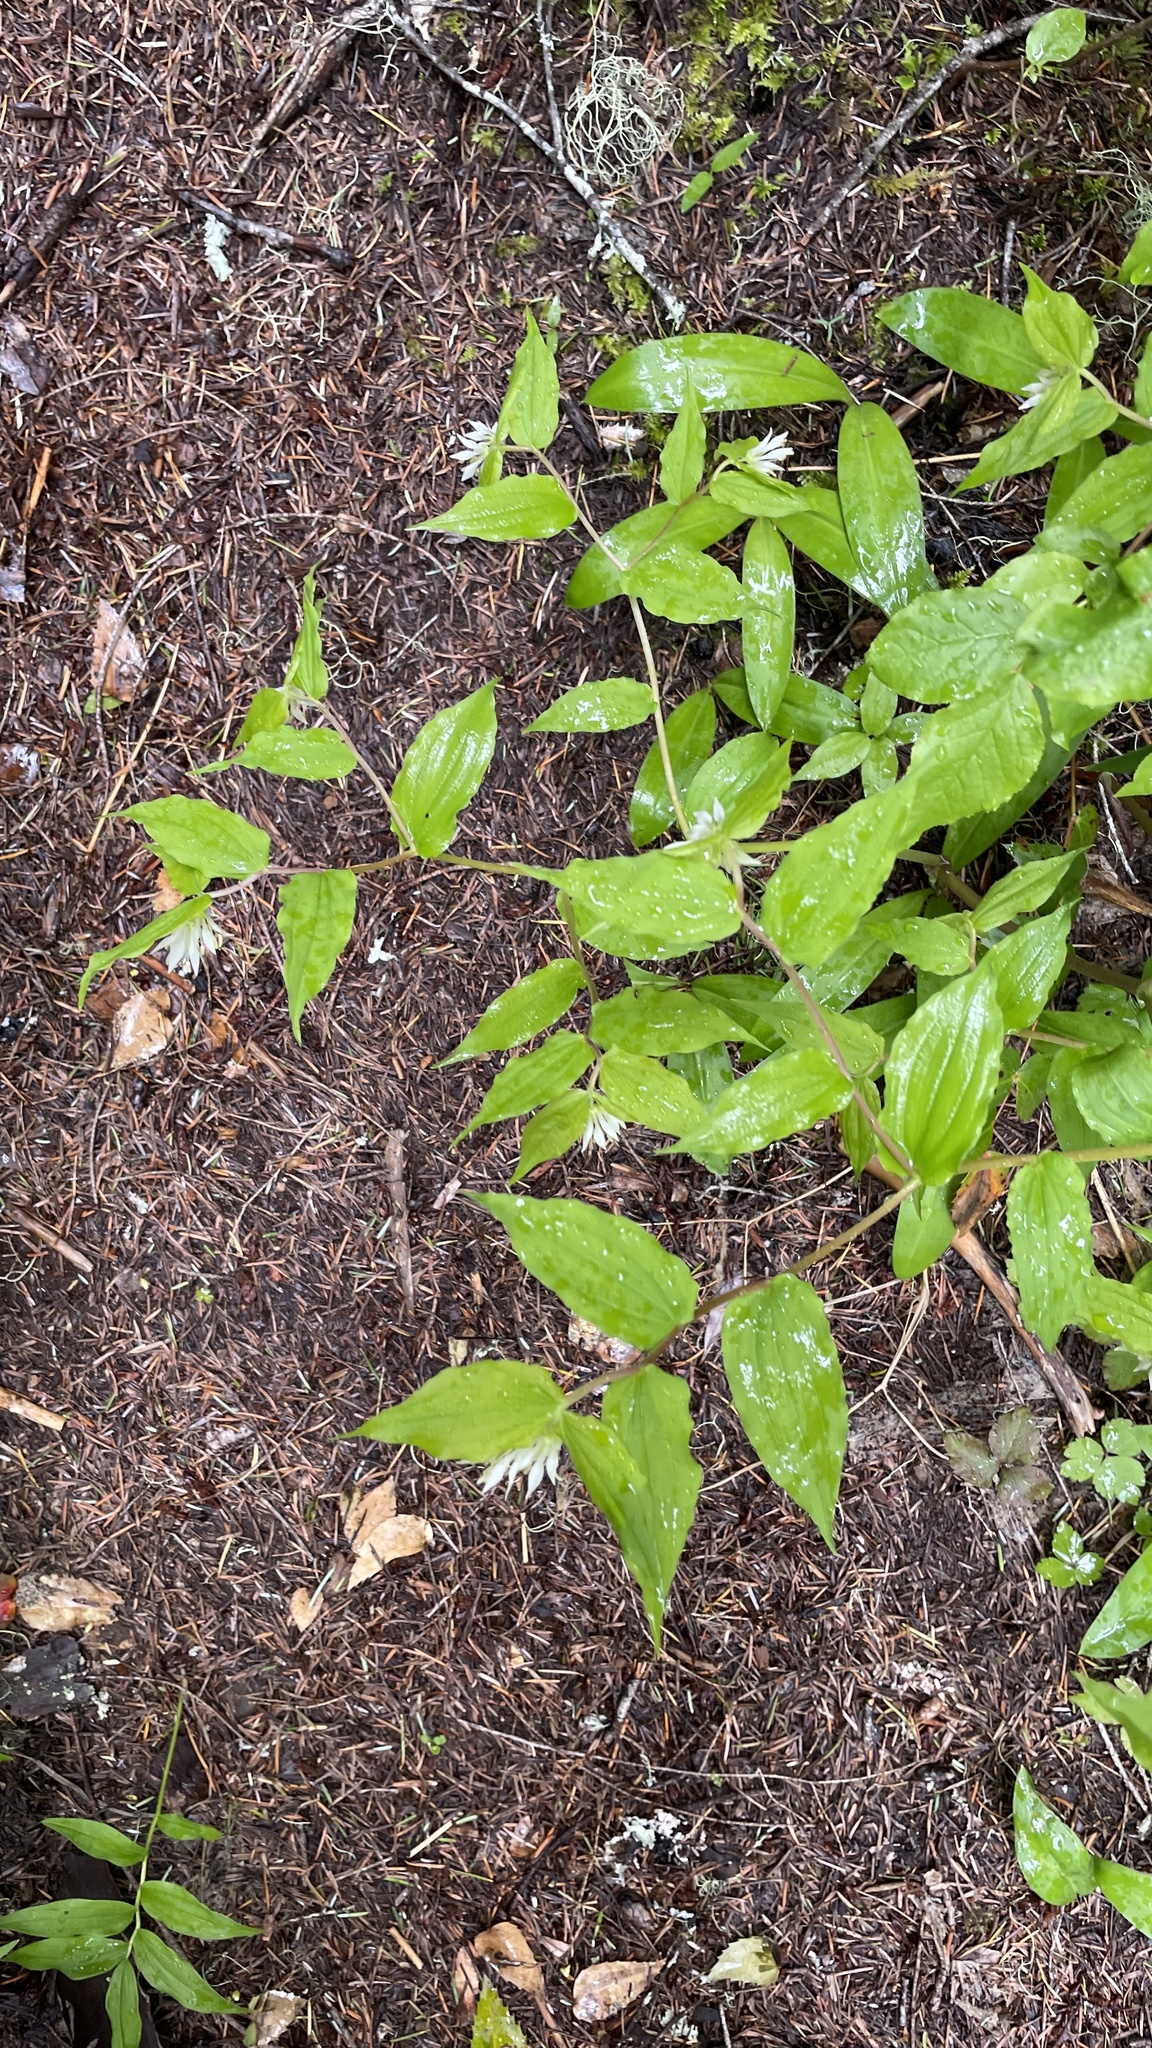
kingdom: Plantae
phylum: Tracheophyta
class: Liliopsida
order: Liliales
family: Liliaceae
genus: Prosartes
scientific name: Prosartes hookeri
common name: Fairy-bells
